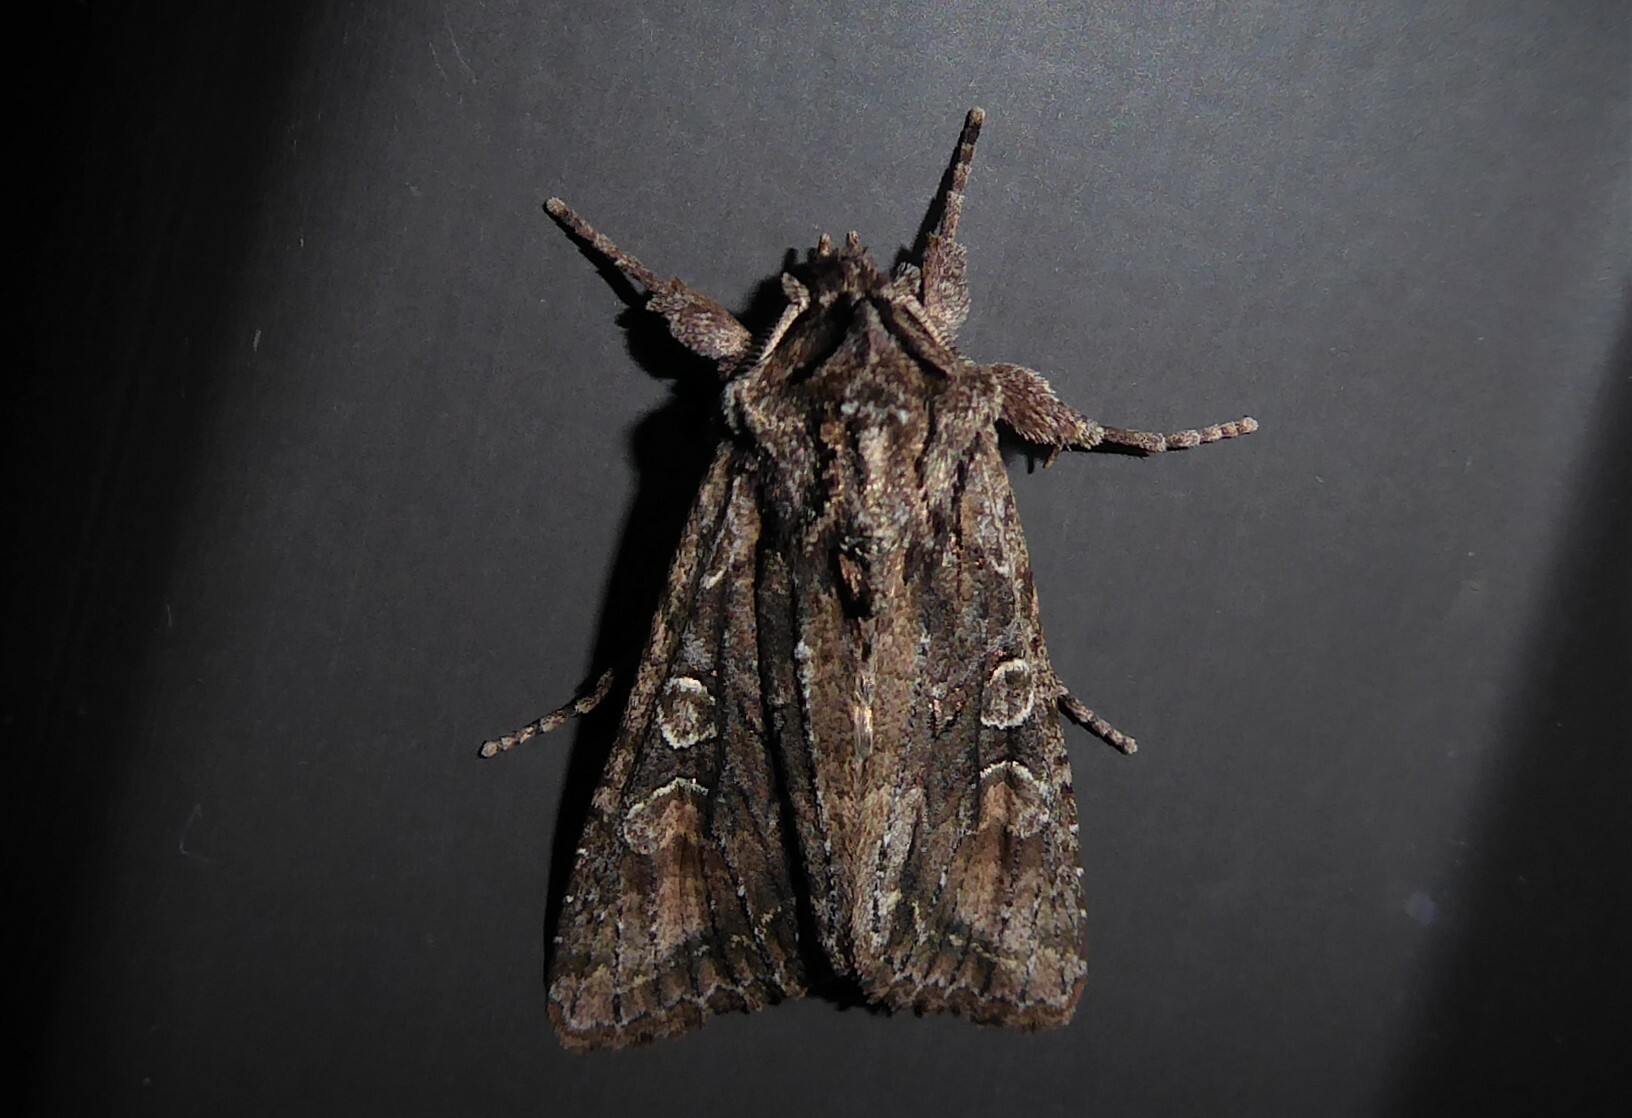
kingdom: Animalia
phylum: Arthropoda
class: Insecta
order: Lepidoptera
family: Noctuidae
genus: Ichneutica
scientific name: Ichneutica mutans
